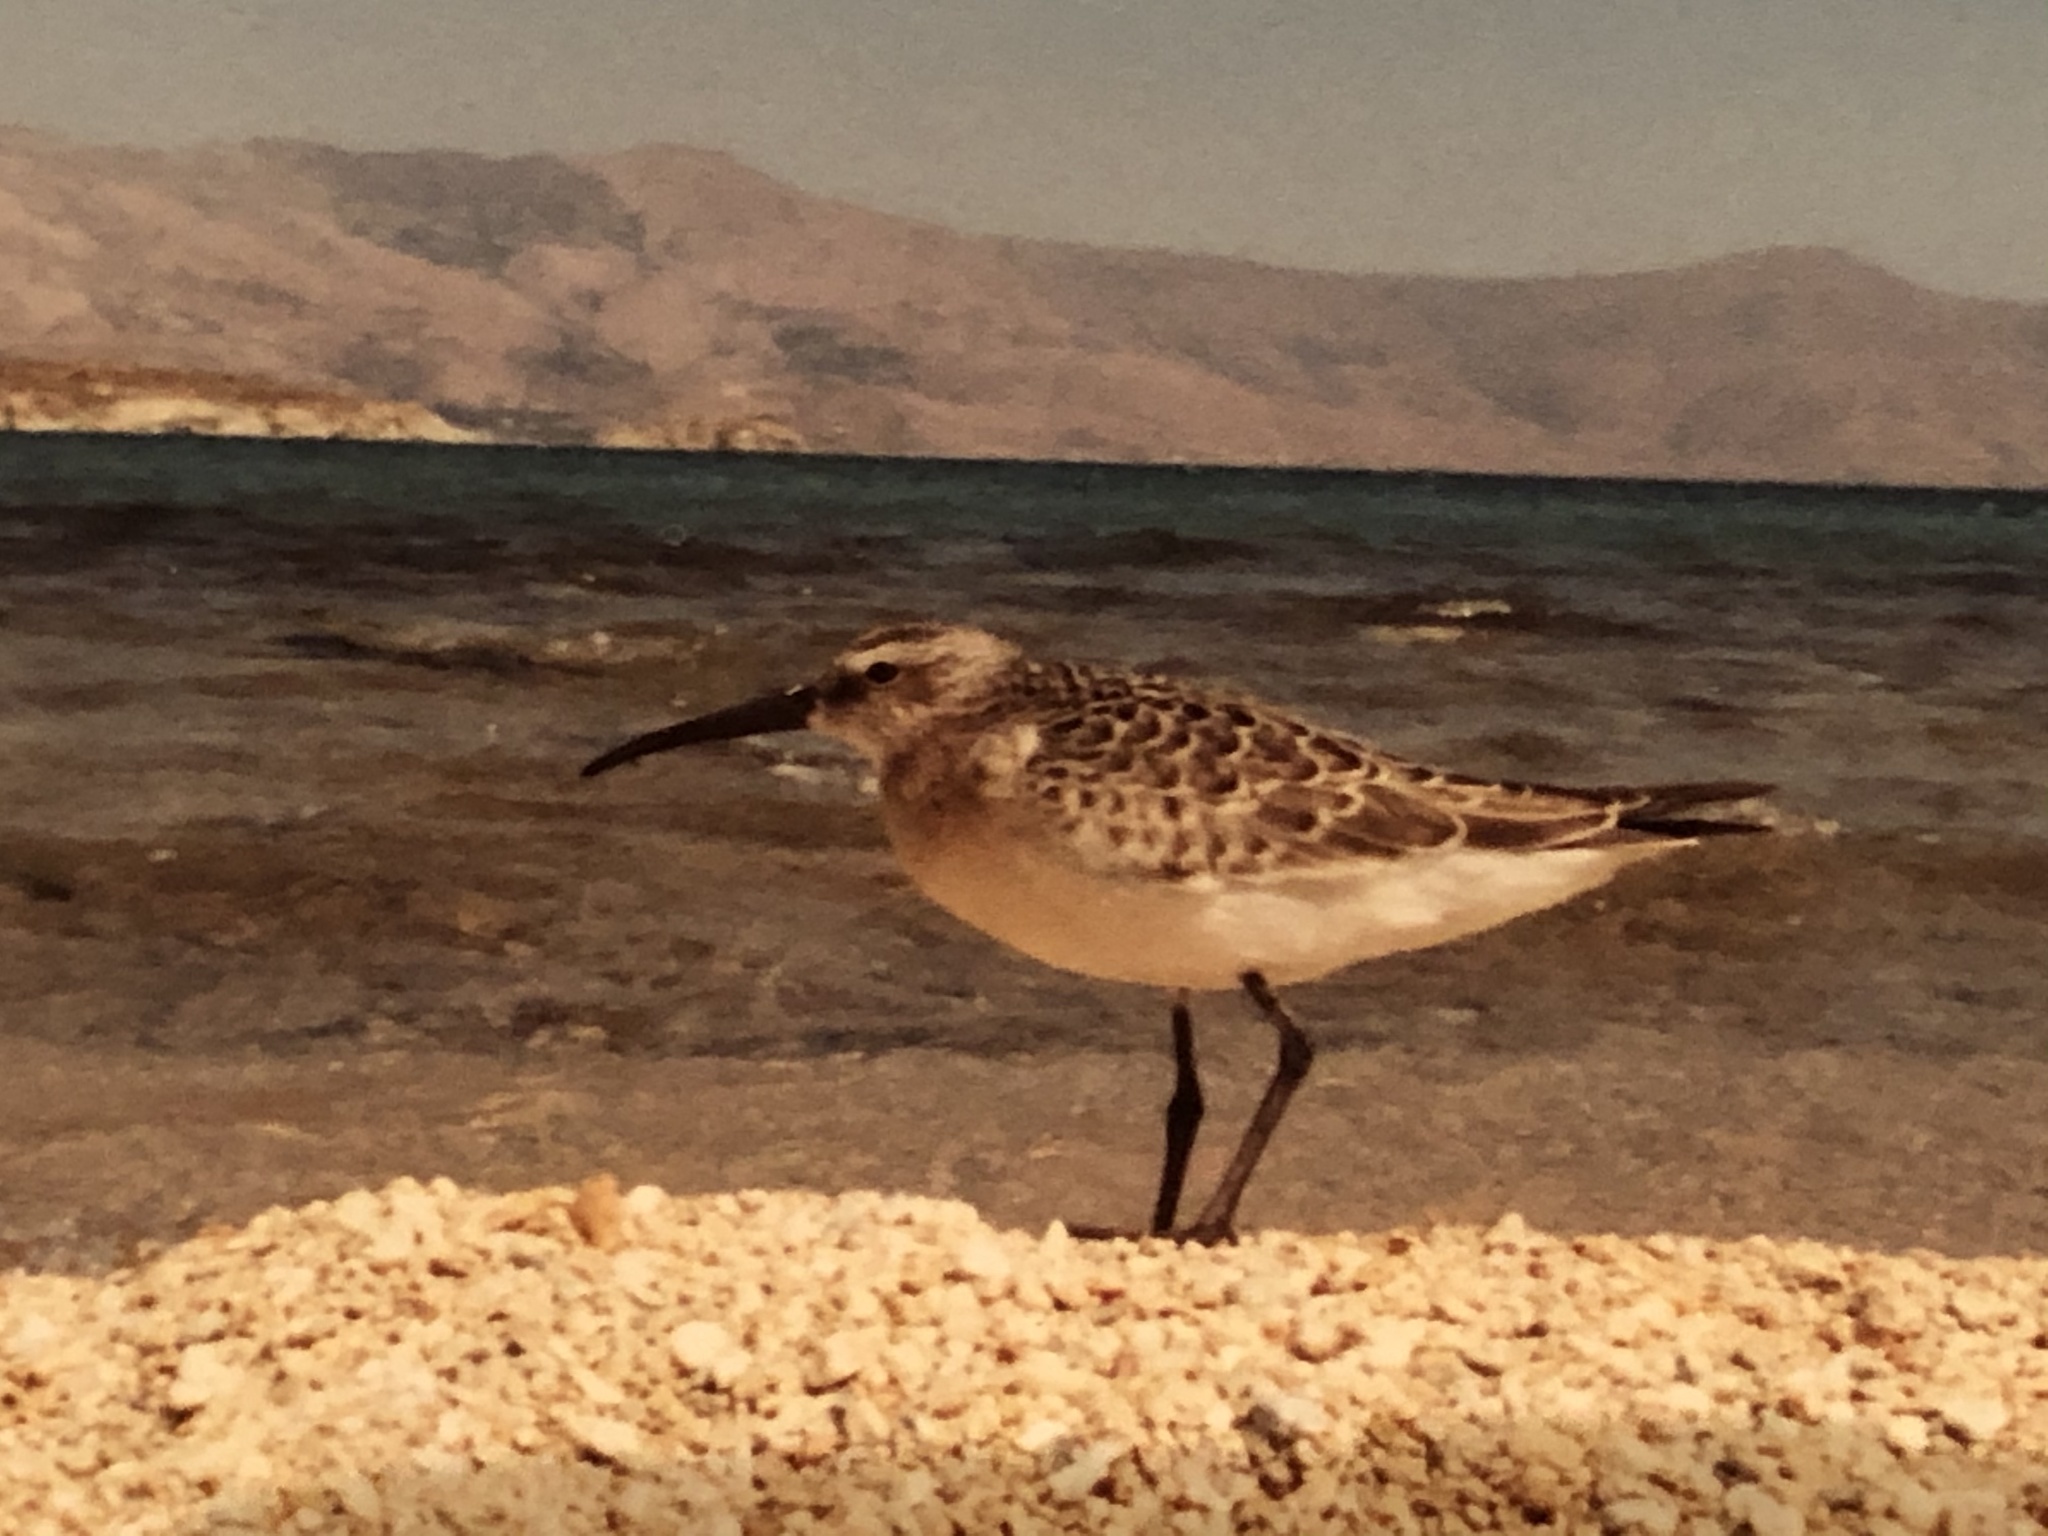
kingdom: Animalia
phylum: Chordata
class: Aves
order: Charadriiformes
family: Scolopacidae
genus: Calidris
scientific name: Calidris ferruginea
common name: Curlew sandpiper
